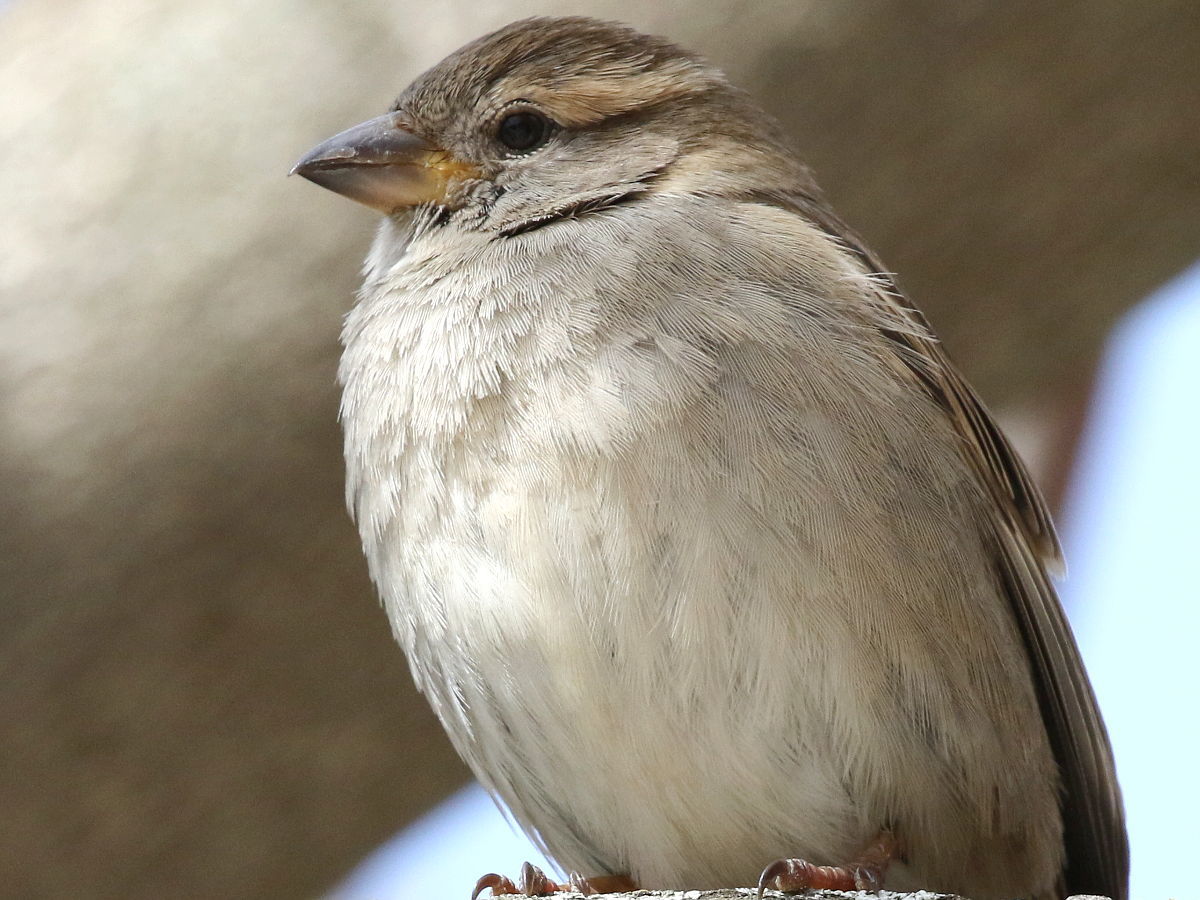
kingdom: Animalia
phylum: Chordata
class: Aves
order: Passeriformes
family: Passeridae
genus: Passer
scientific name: Passer domesticus
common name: House sparrow
